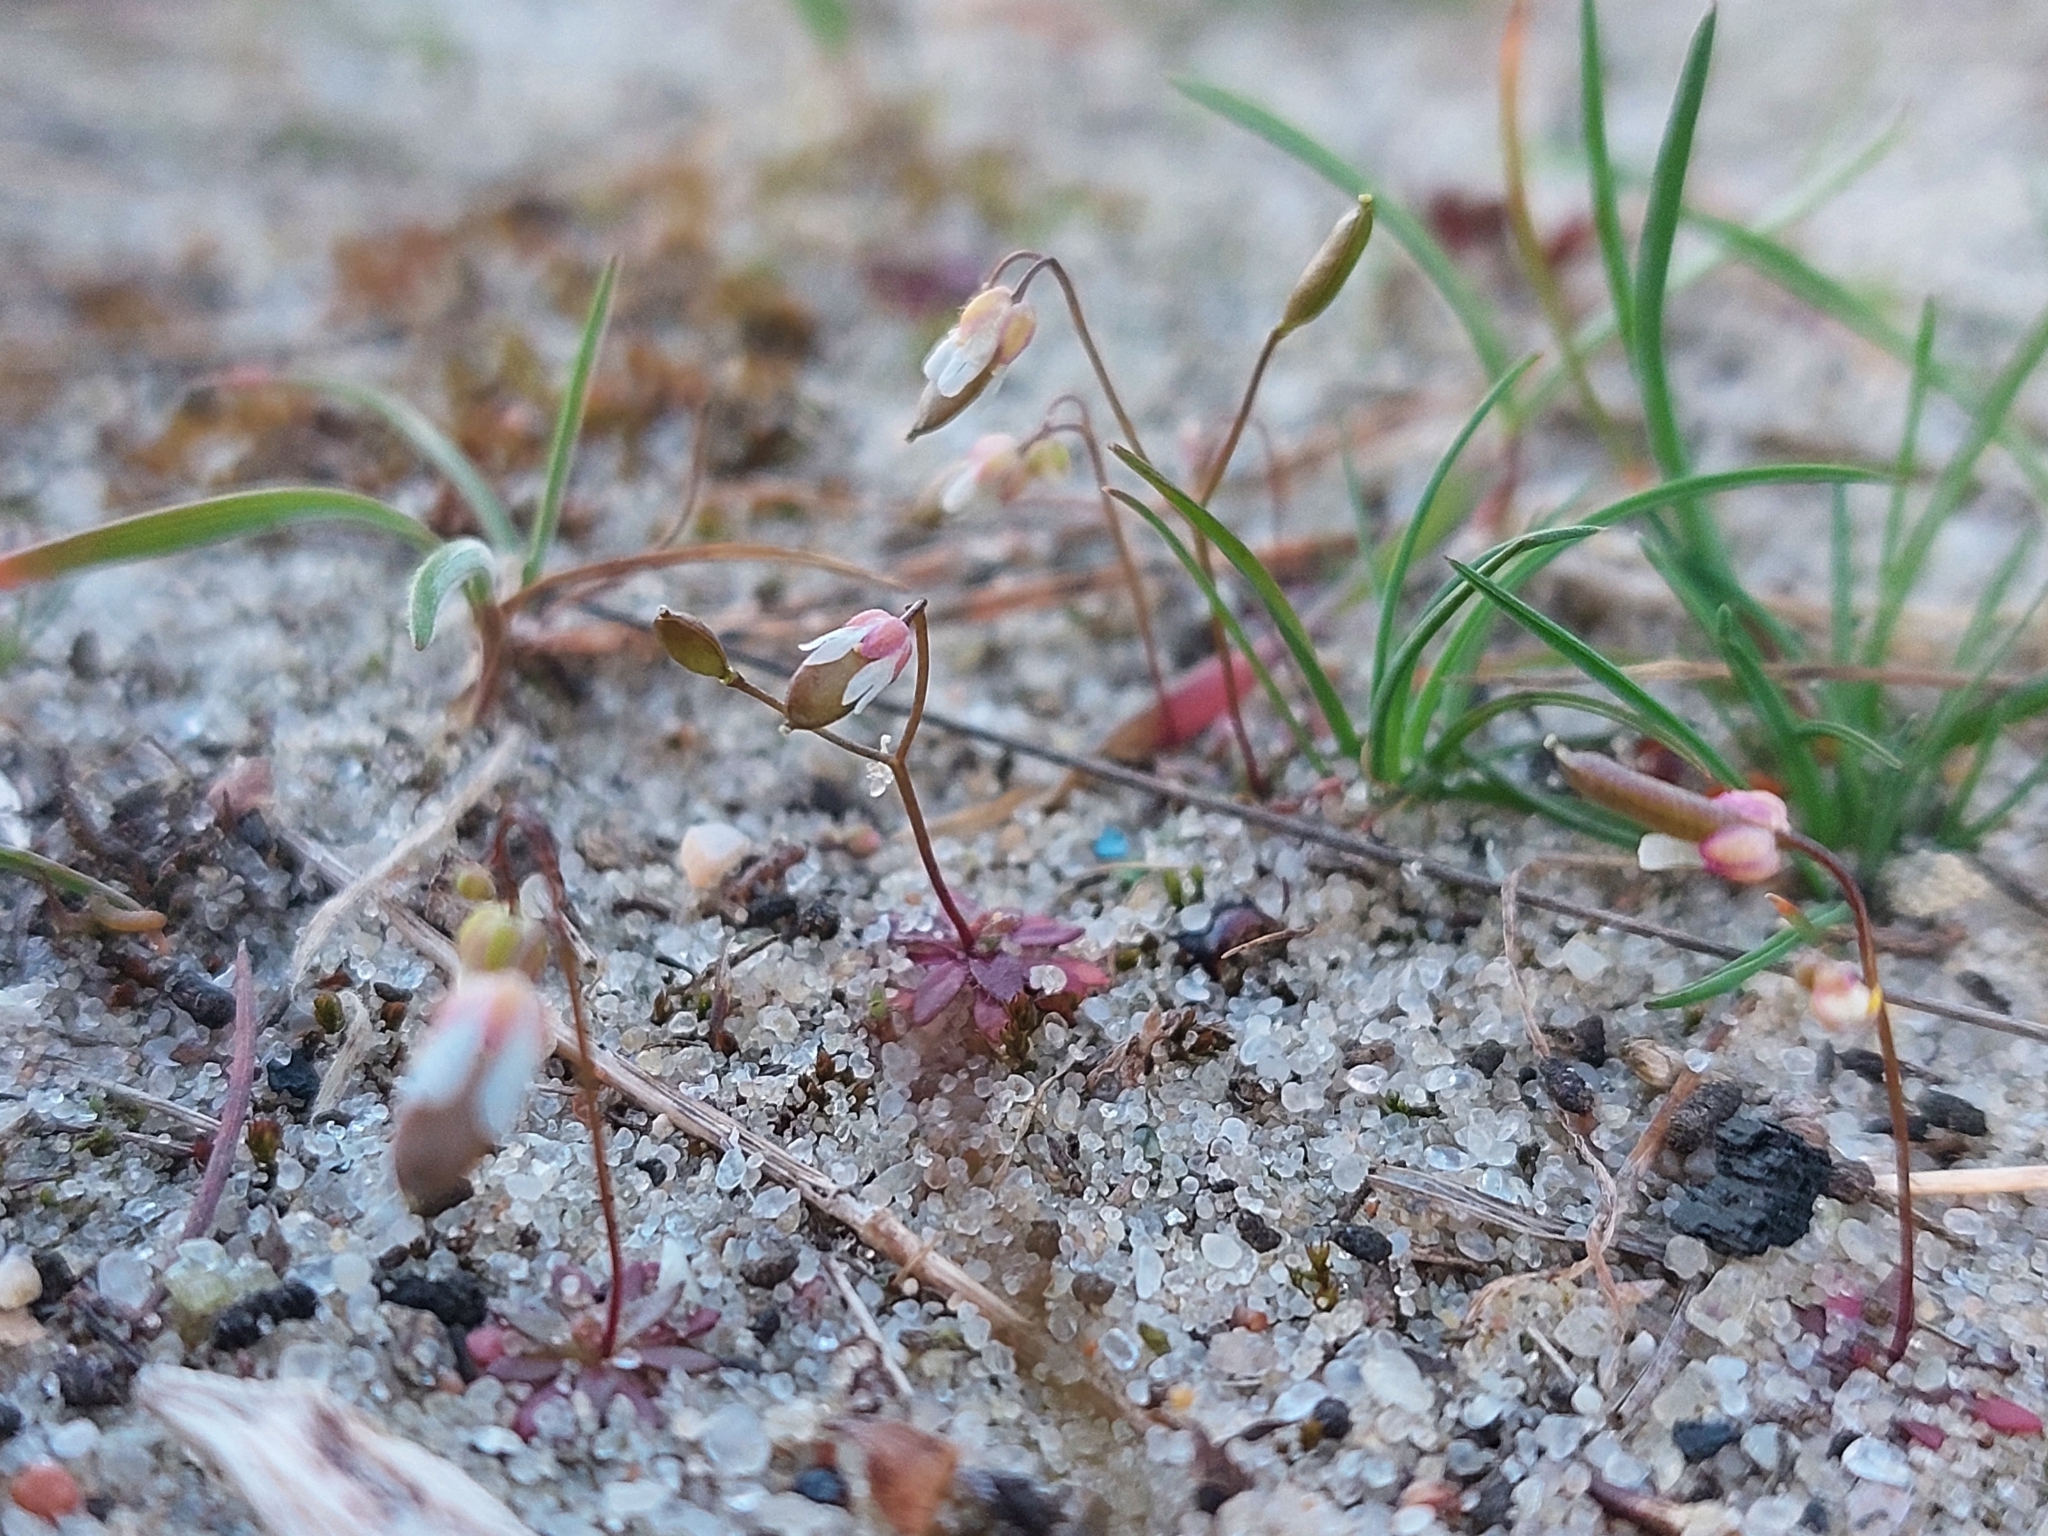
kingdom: Plantae
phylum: Tracheophyta
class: Magnoliopsida
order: Brassicales
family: Brassicaceae
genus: Draba
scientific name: Draba verna
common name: Spring draba
